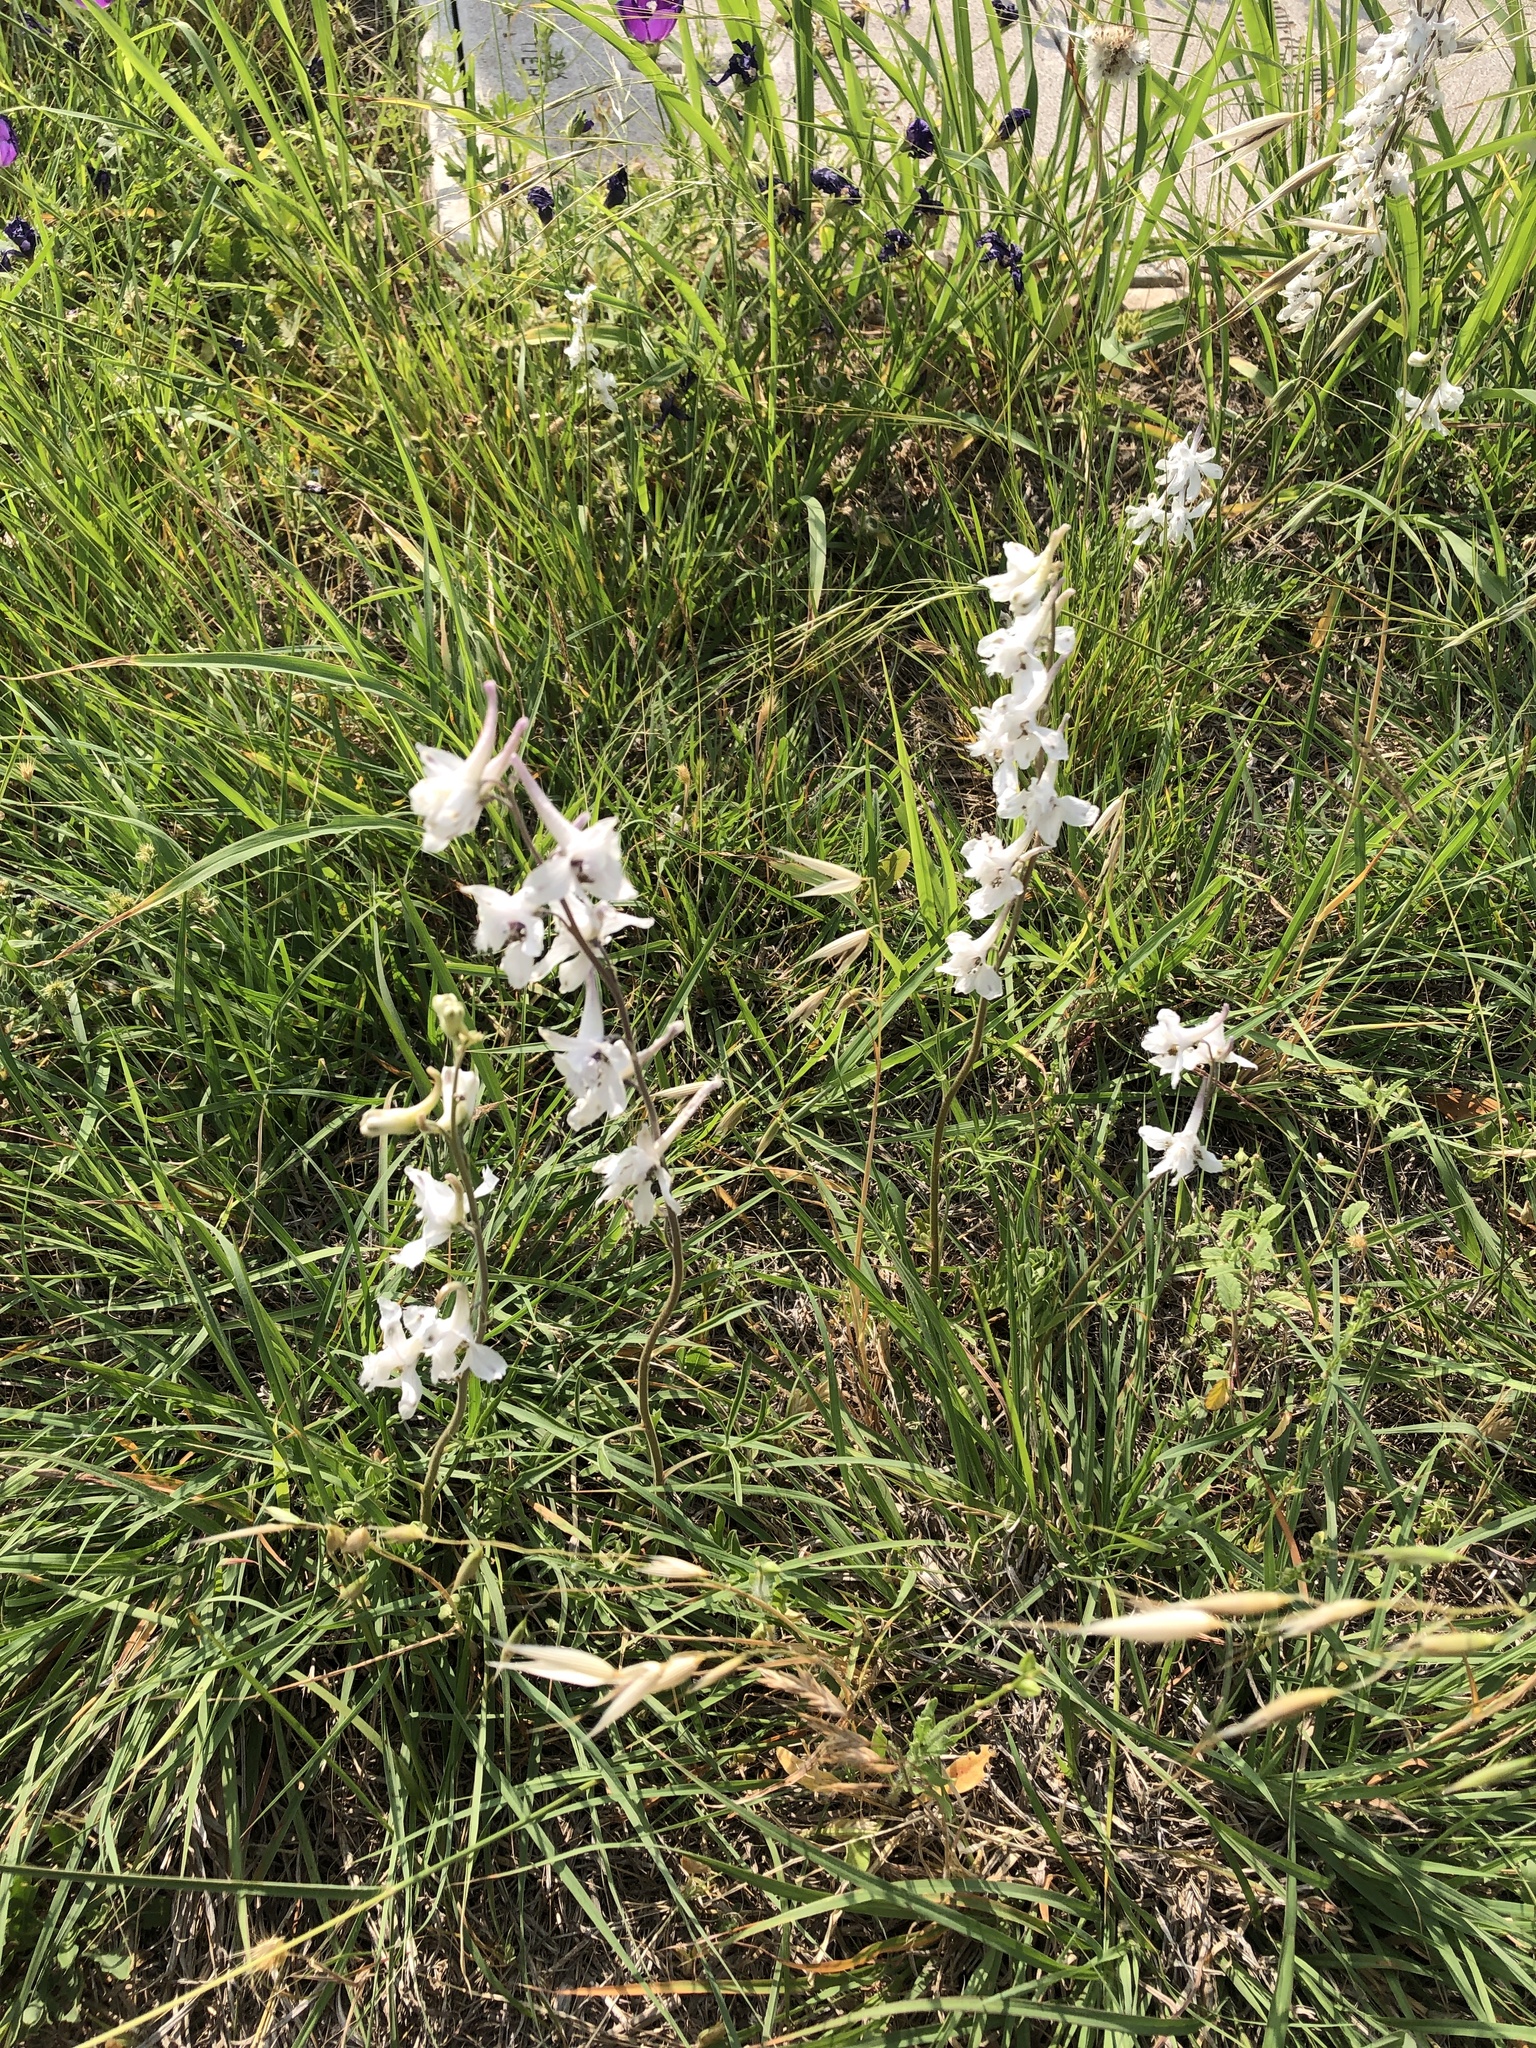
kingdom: Plantae
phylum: Tracheophyta
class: Magnoliopsida
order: Ranunculales
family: Ranunculaceae
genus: Delphinium
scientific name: Delphinium carolinianum
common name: Carolina larkspur
